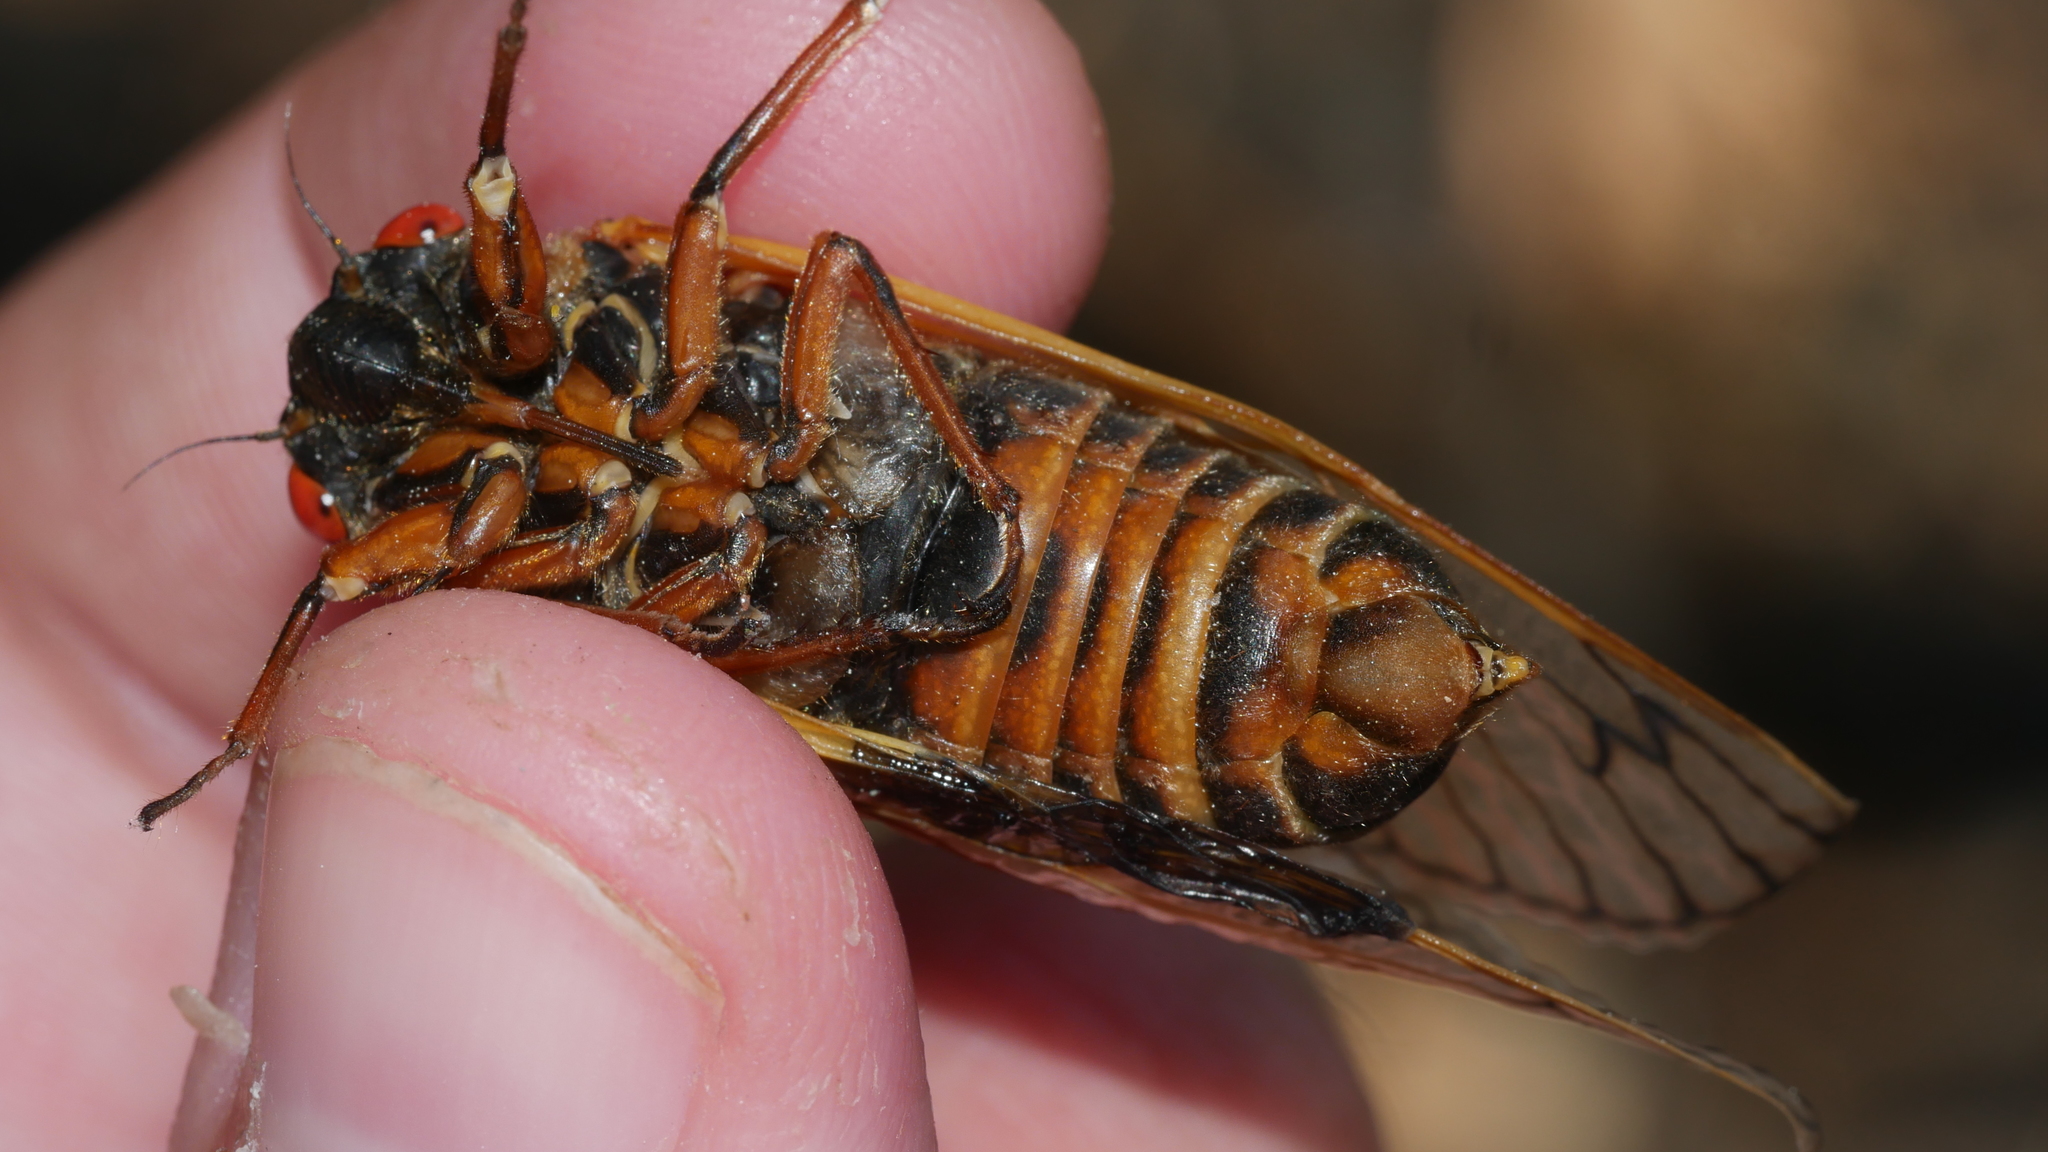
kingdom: Animalia
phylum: Arthropoda
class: Insecta
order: Hemiptera
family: Cicadidae
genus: Magicicada
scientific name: Magicicada septendecim
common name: Periodical cicada
